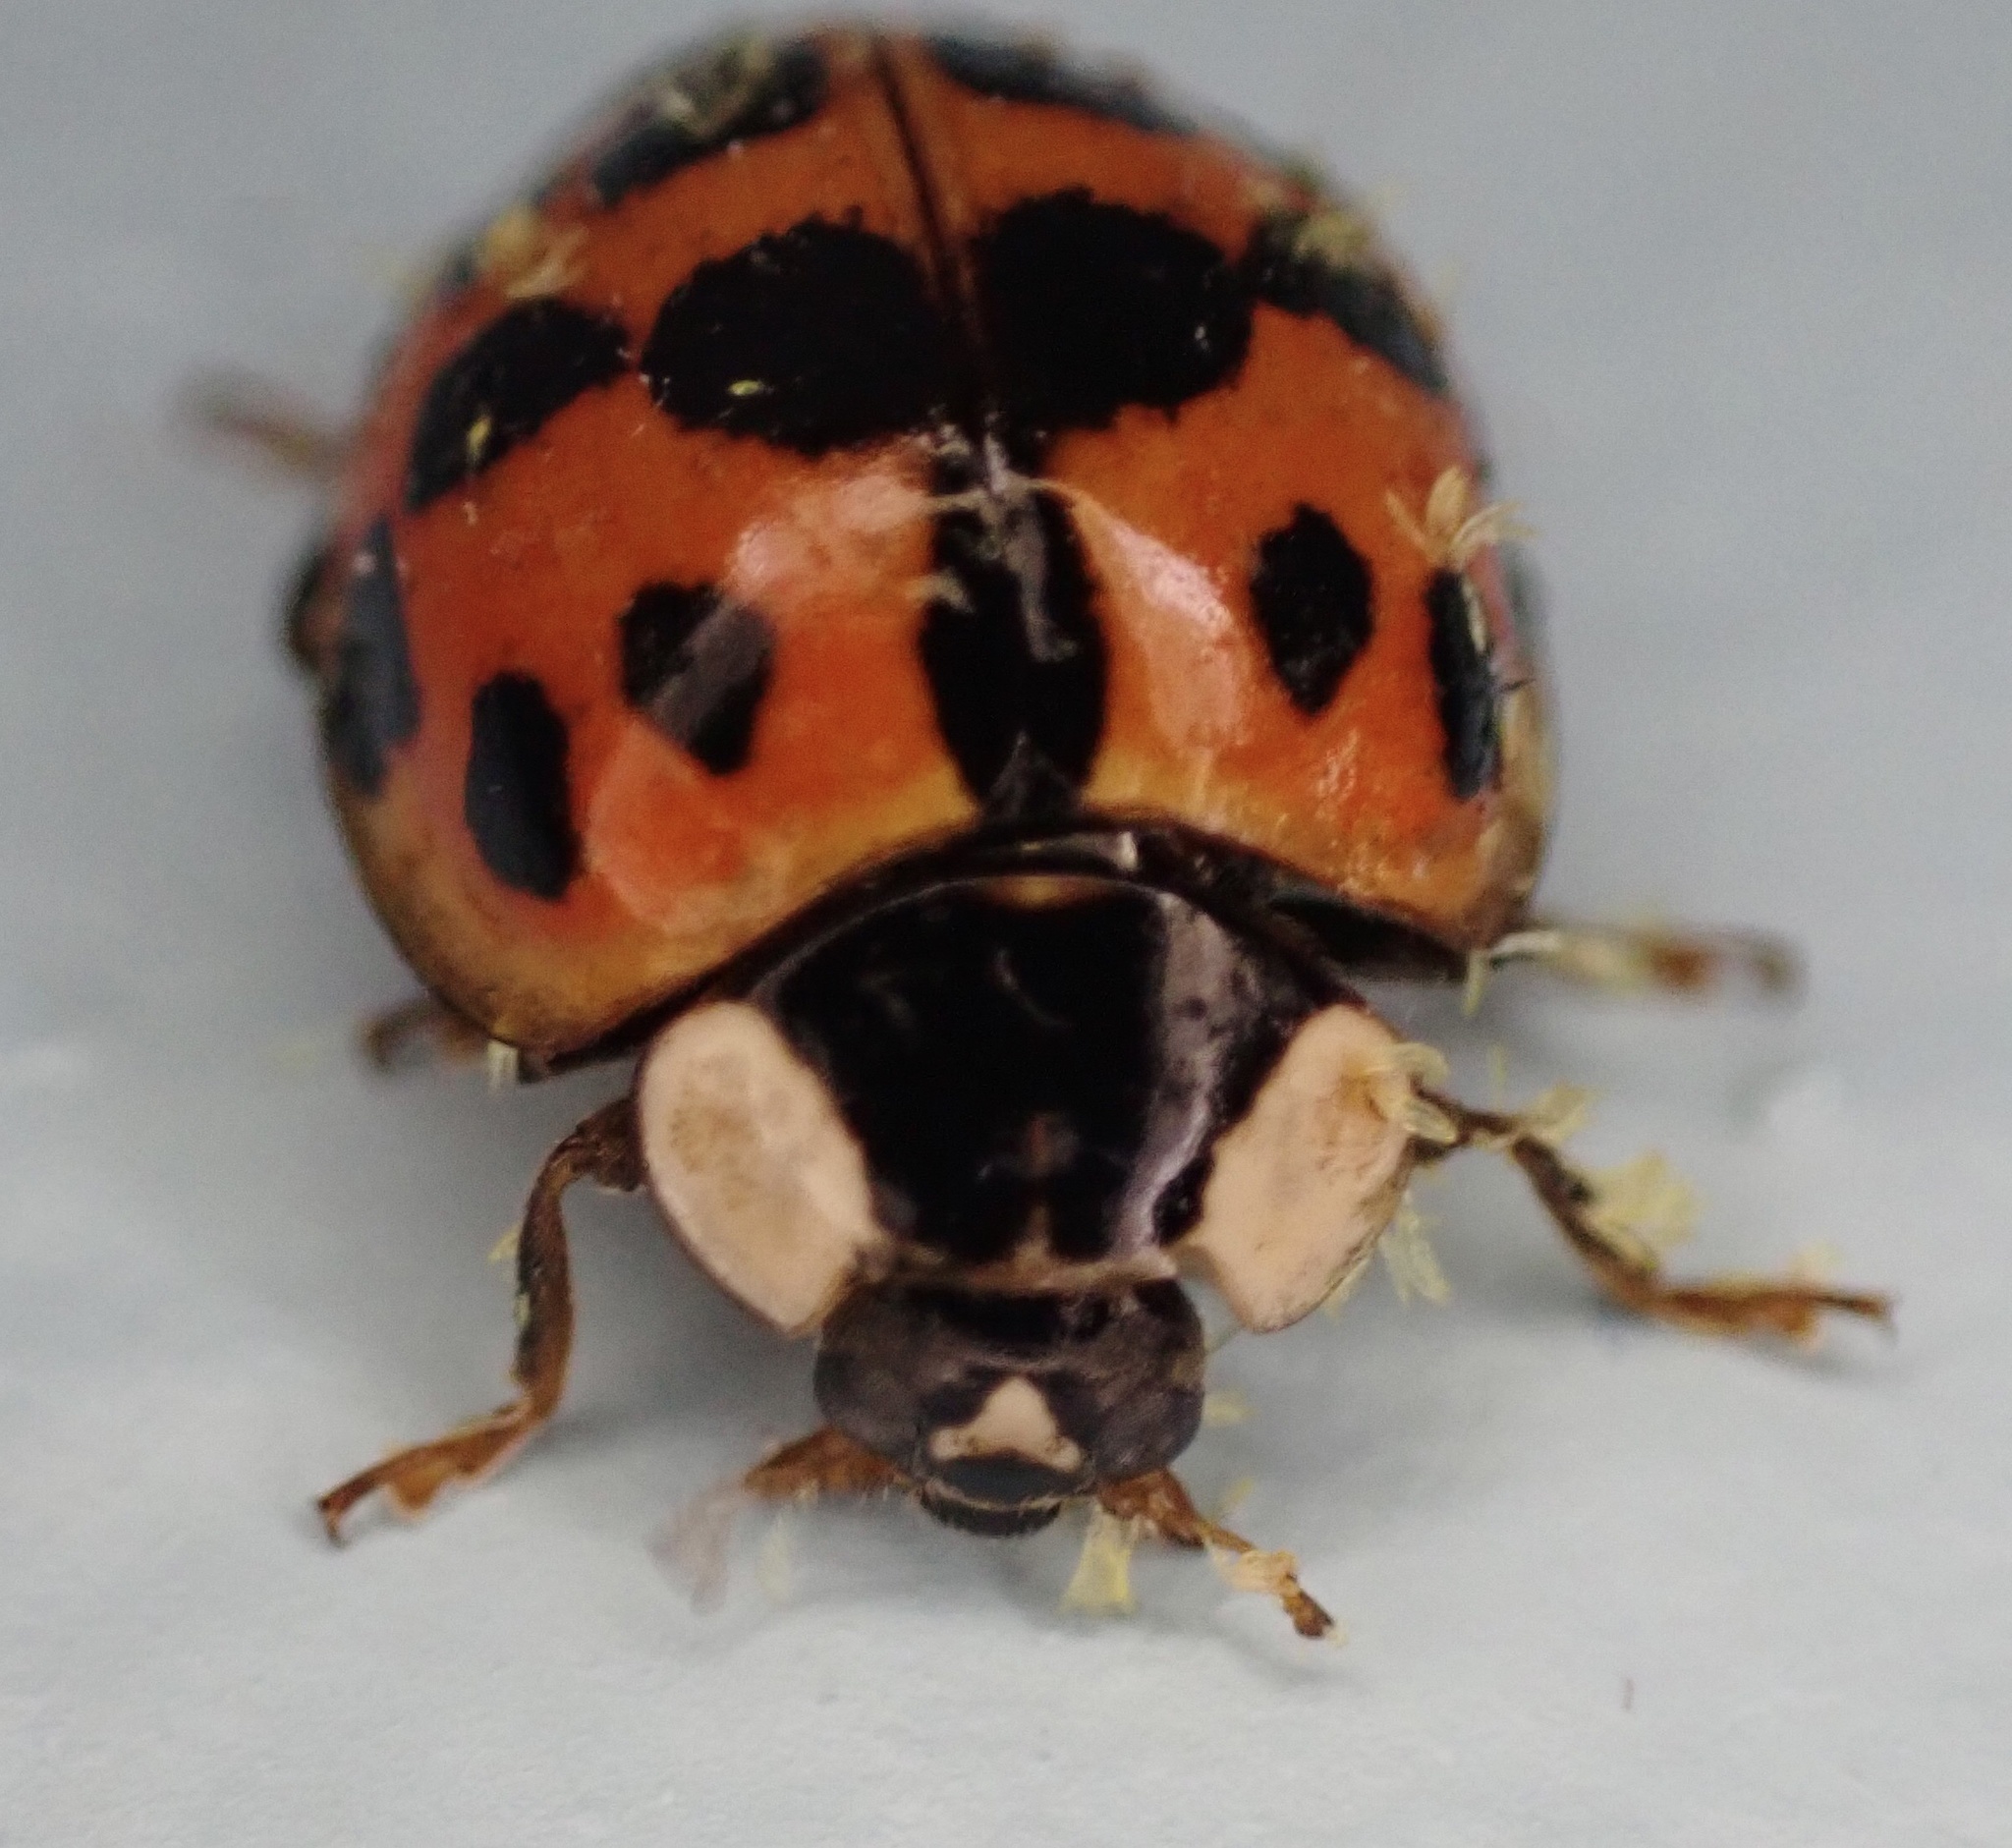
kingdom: Fungi
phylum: Ascomycota
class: Laboulbeniomycetes
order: Laboulbeniales
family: Laboulbeniaceae
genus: Hesperomyces
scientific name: Hesperomyces harmoniae
